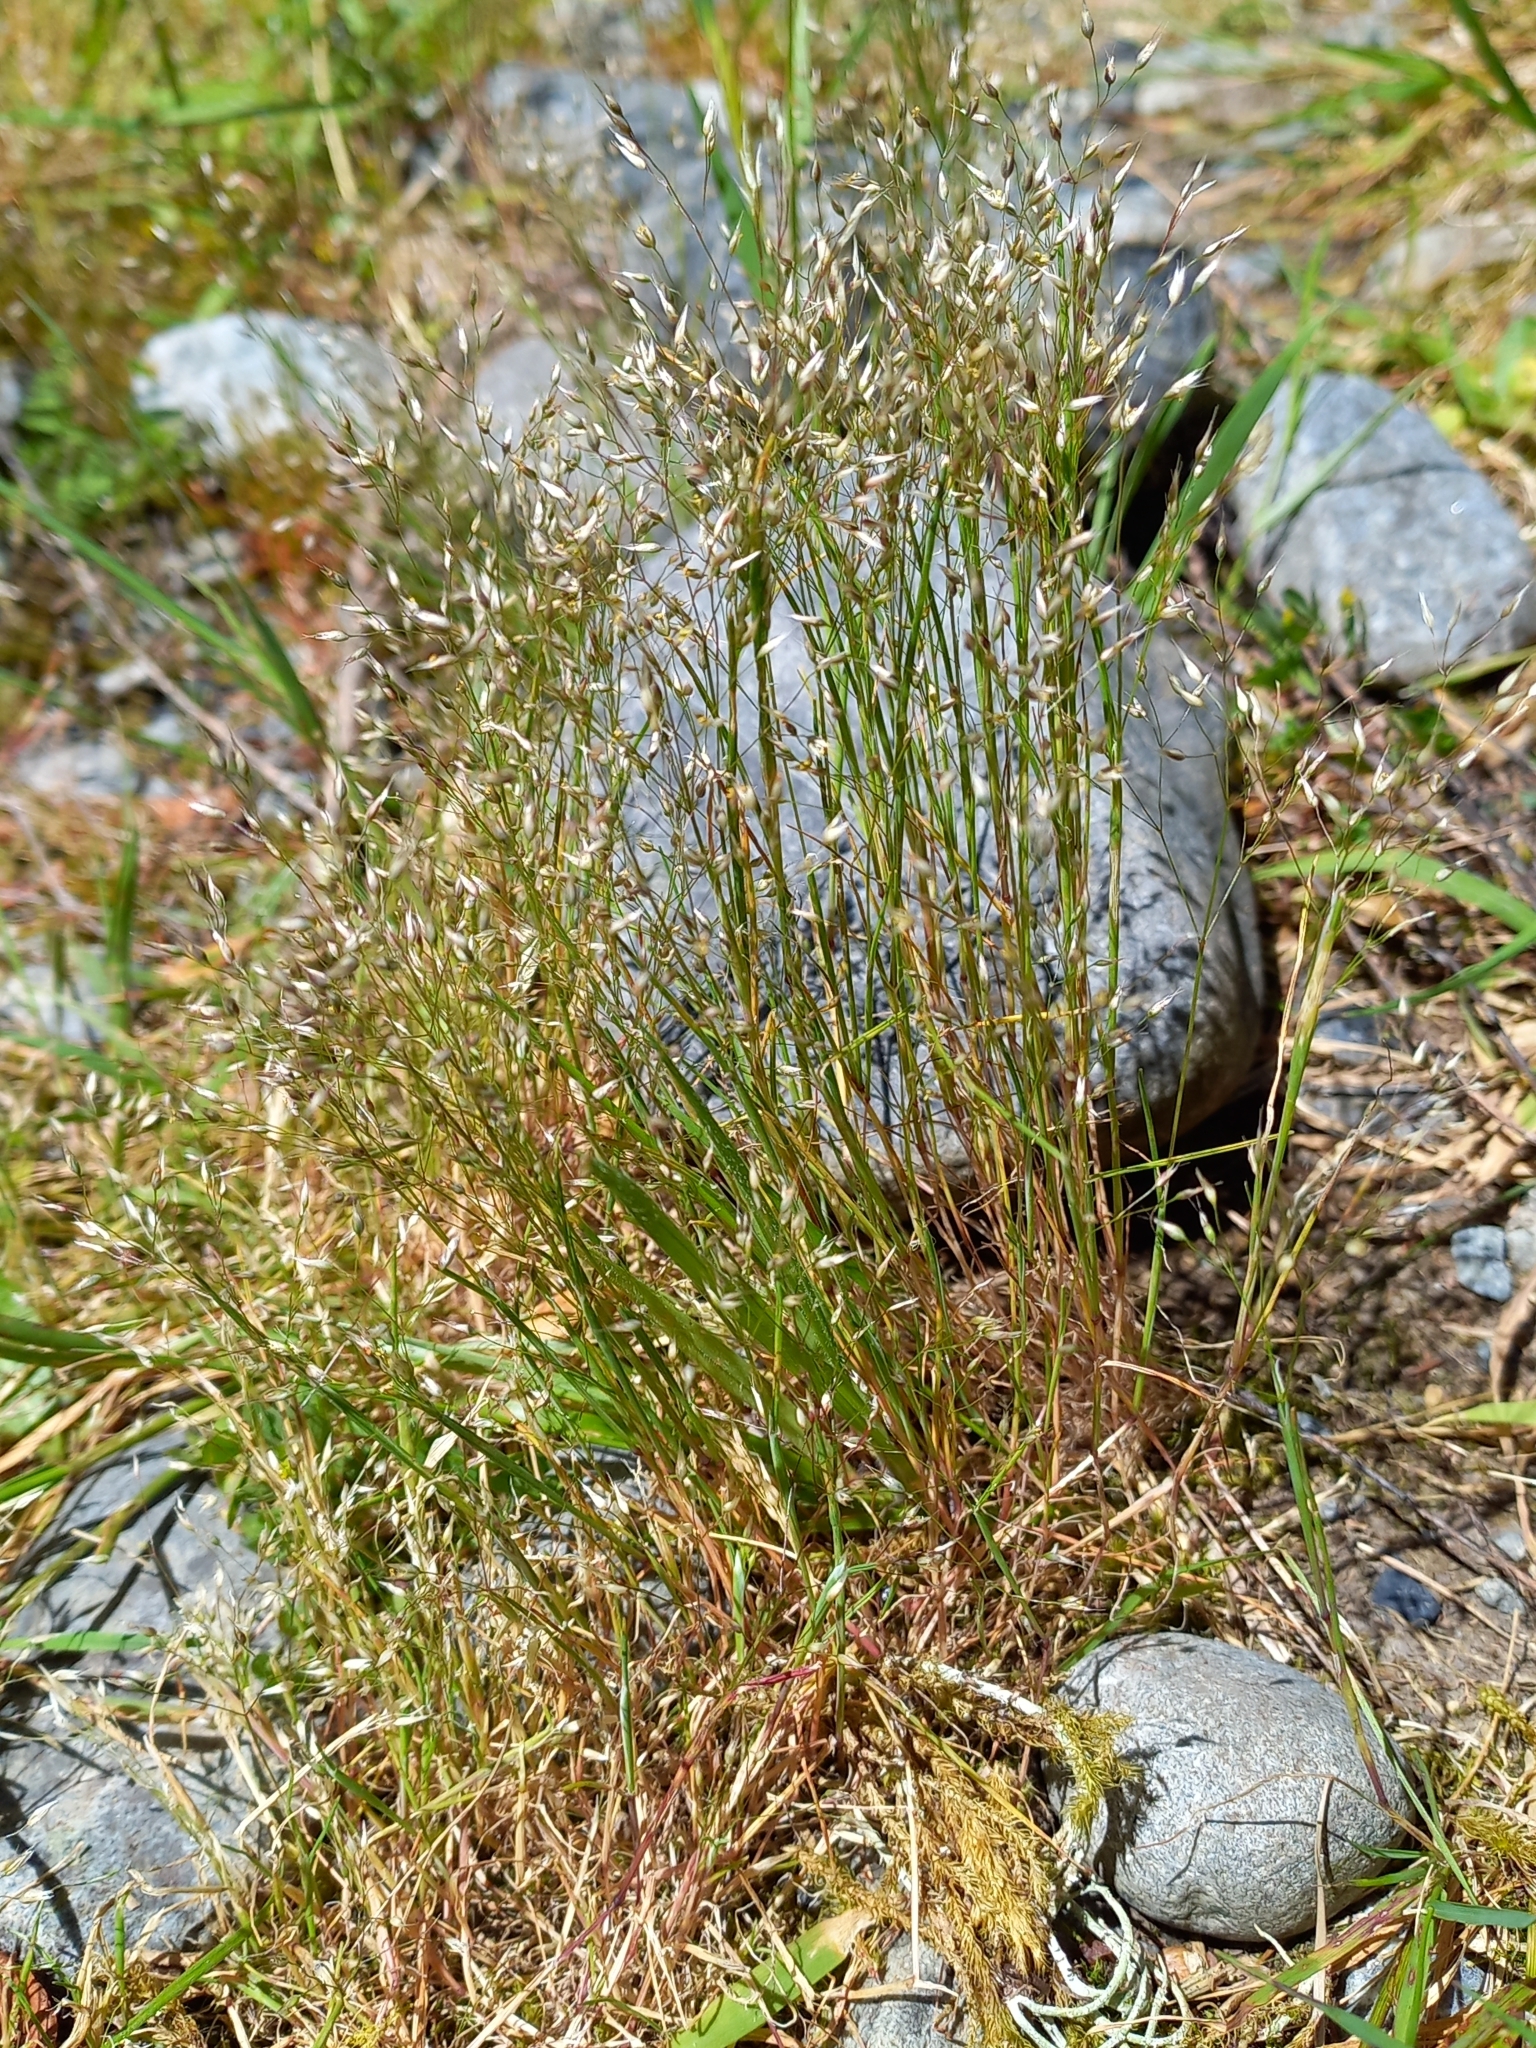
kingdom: Plantae
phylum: Tracheophyta
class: Liliopsida
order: Poales
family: Poaceae
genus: Aira
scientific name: Aira caryophyllea
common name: Silver hairgrass
